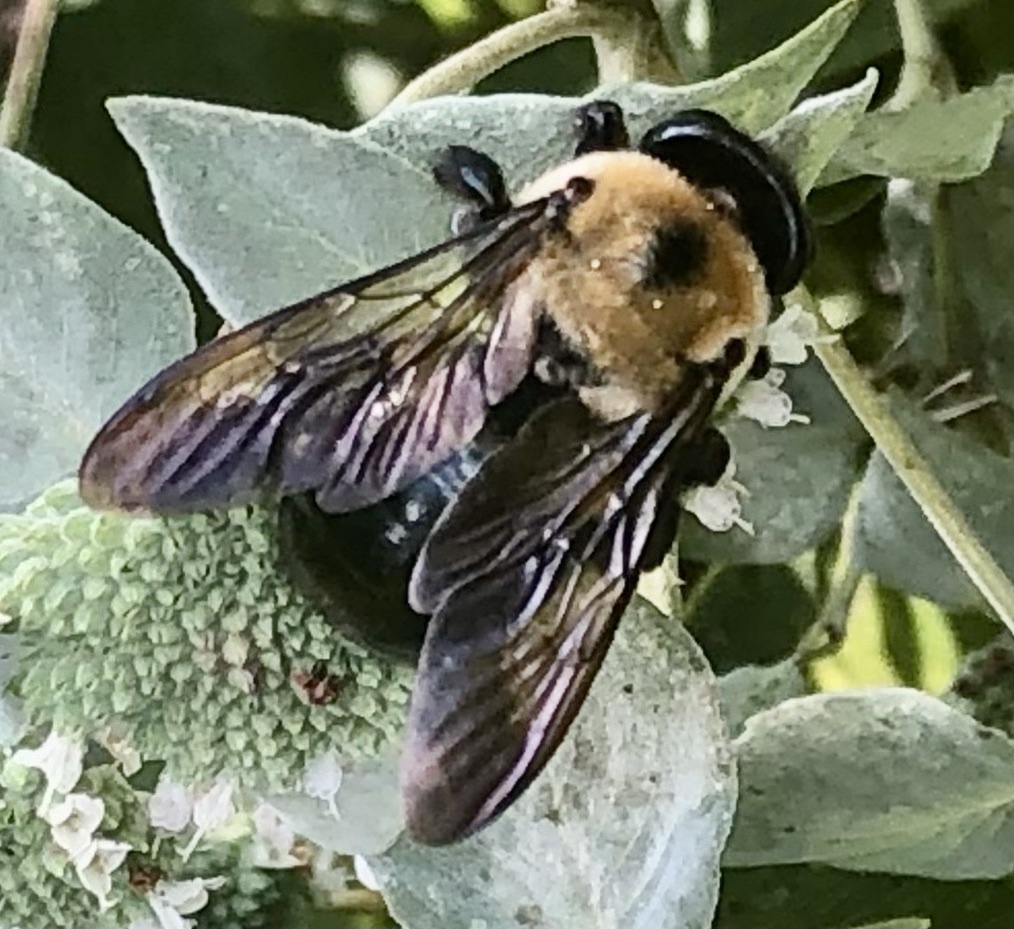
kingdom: Animalia
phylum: Arthropoda
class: Insecta
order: Hymenoptera
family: Apidae
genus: Xylocopa
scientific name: Xylocopa virginica
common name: Carpenter bee
